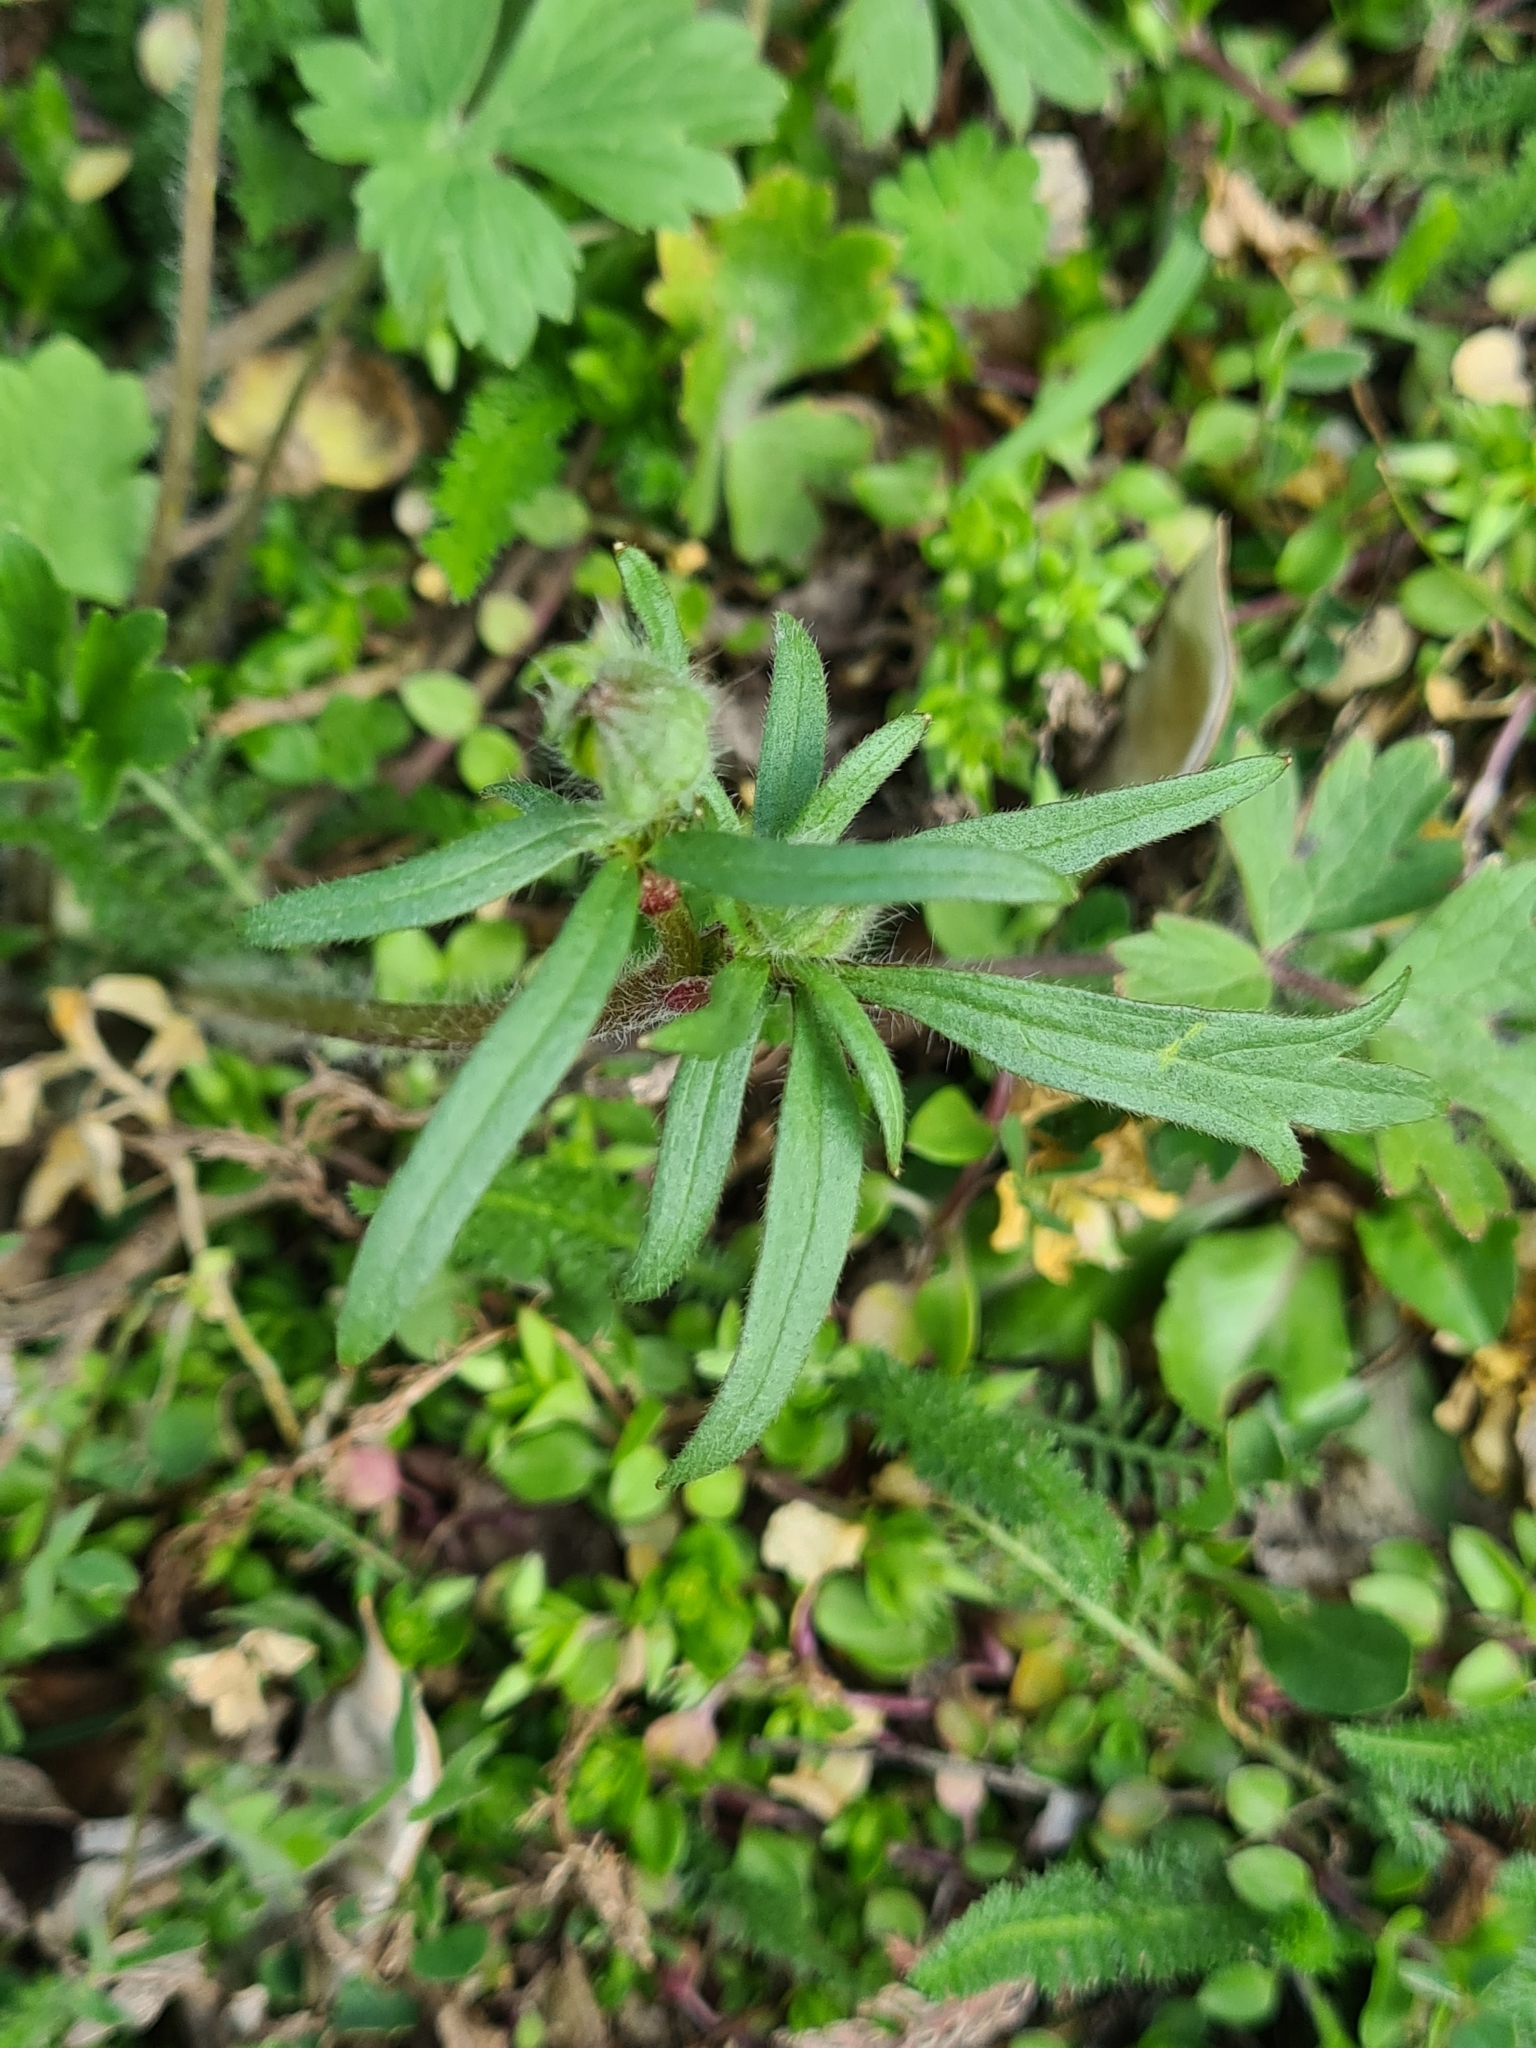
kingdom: Plantae
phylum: Tracheophyta
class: Magnoliopsida
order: Ranunculales
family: Ranunculaceae
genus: Ranunculus
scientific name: Ranunculus bulbosus
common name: Bulbous buttercup
